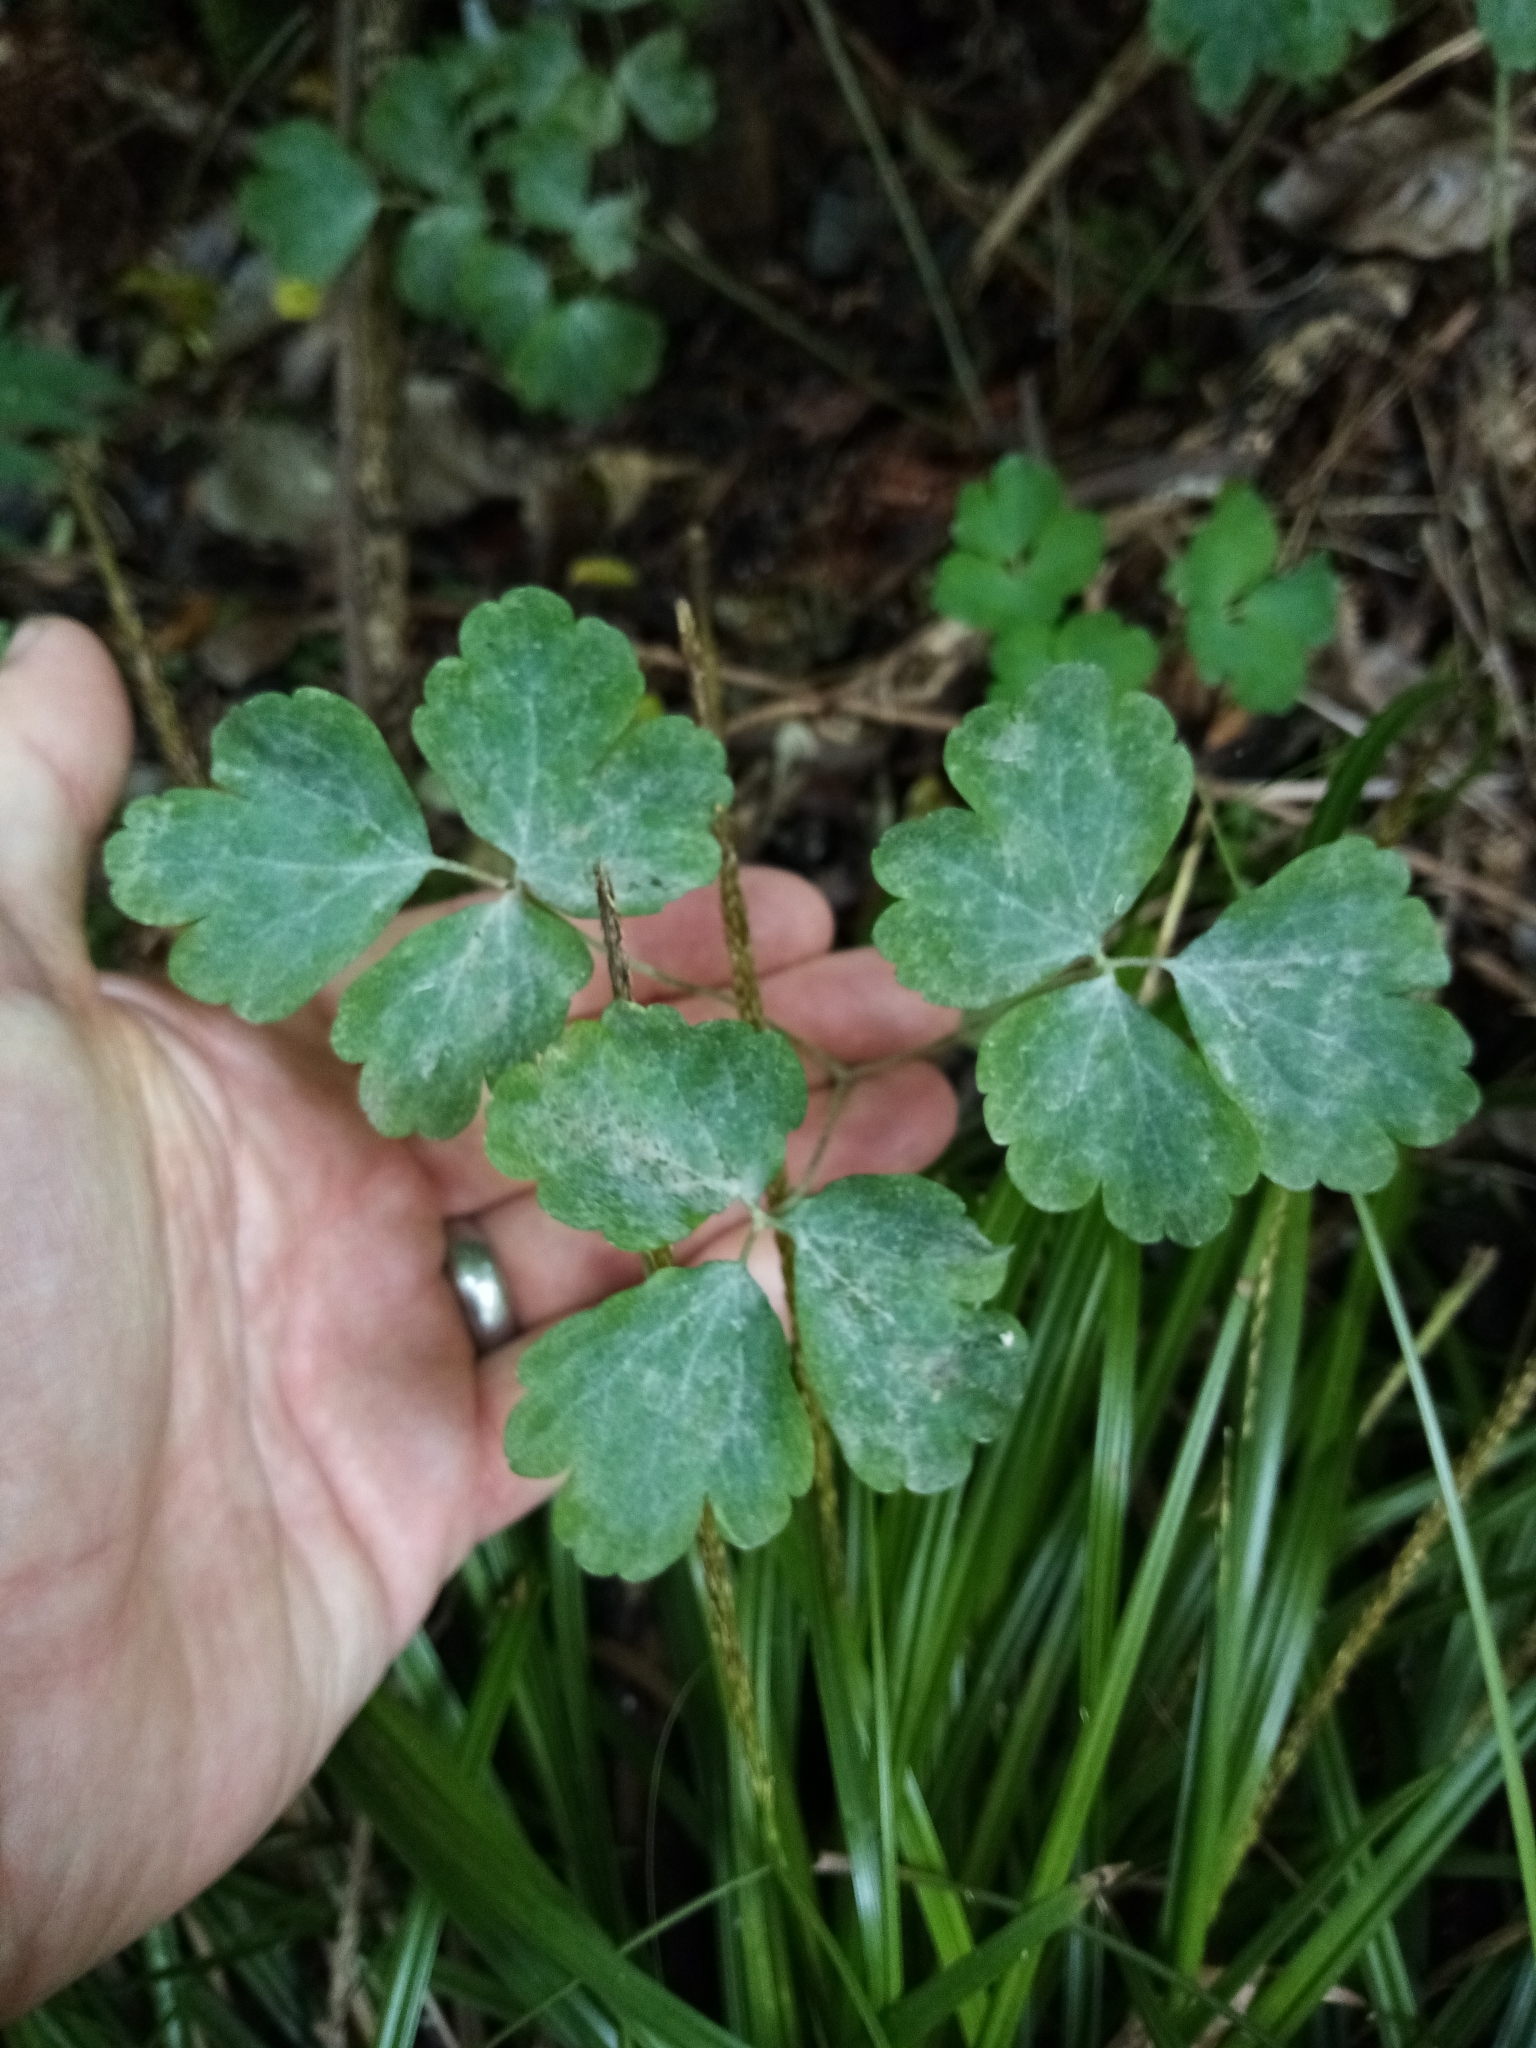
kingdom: Plantae
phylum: Tracheophyta
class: Magnoliopsida
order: Ranunculales
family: Ranunculaceae
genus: Aquilegia
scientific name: Aquilegia vulgaris
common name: Columbine
